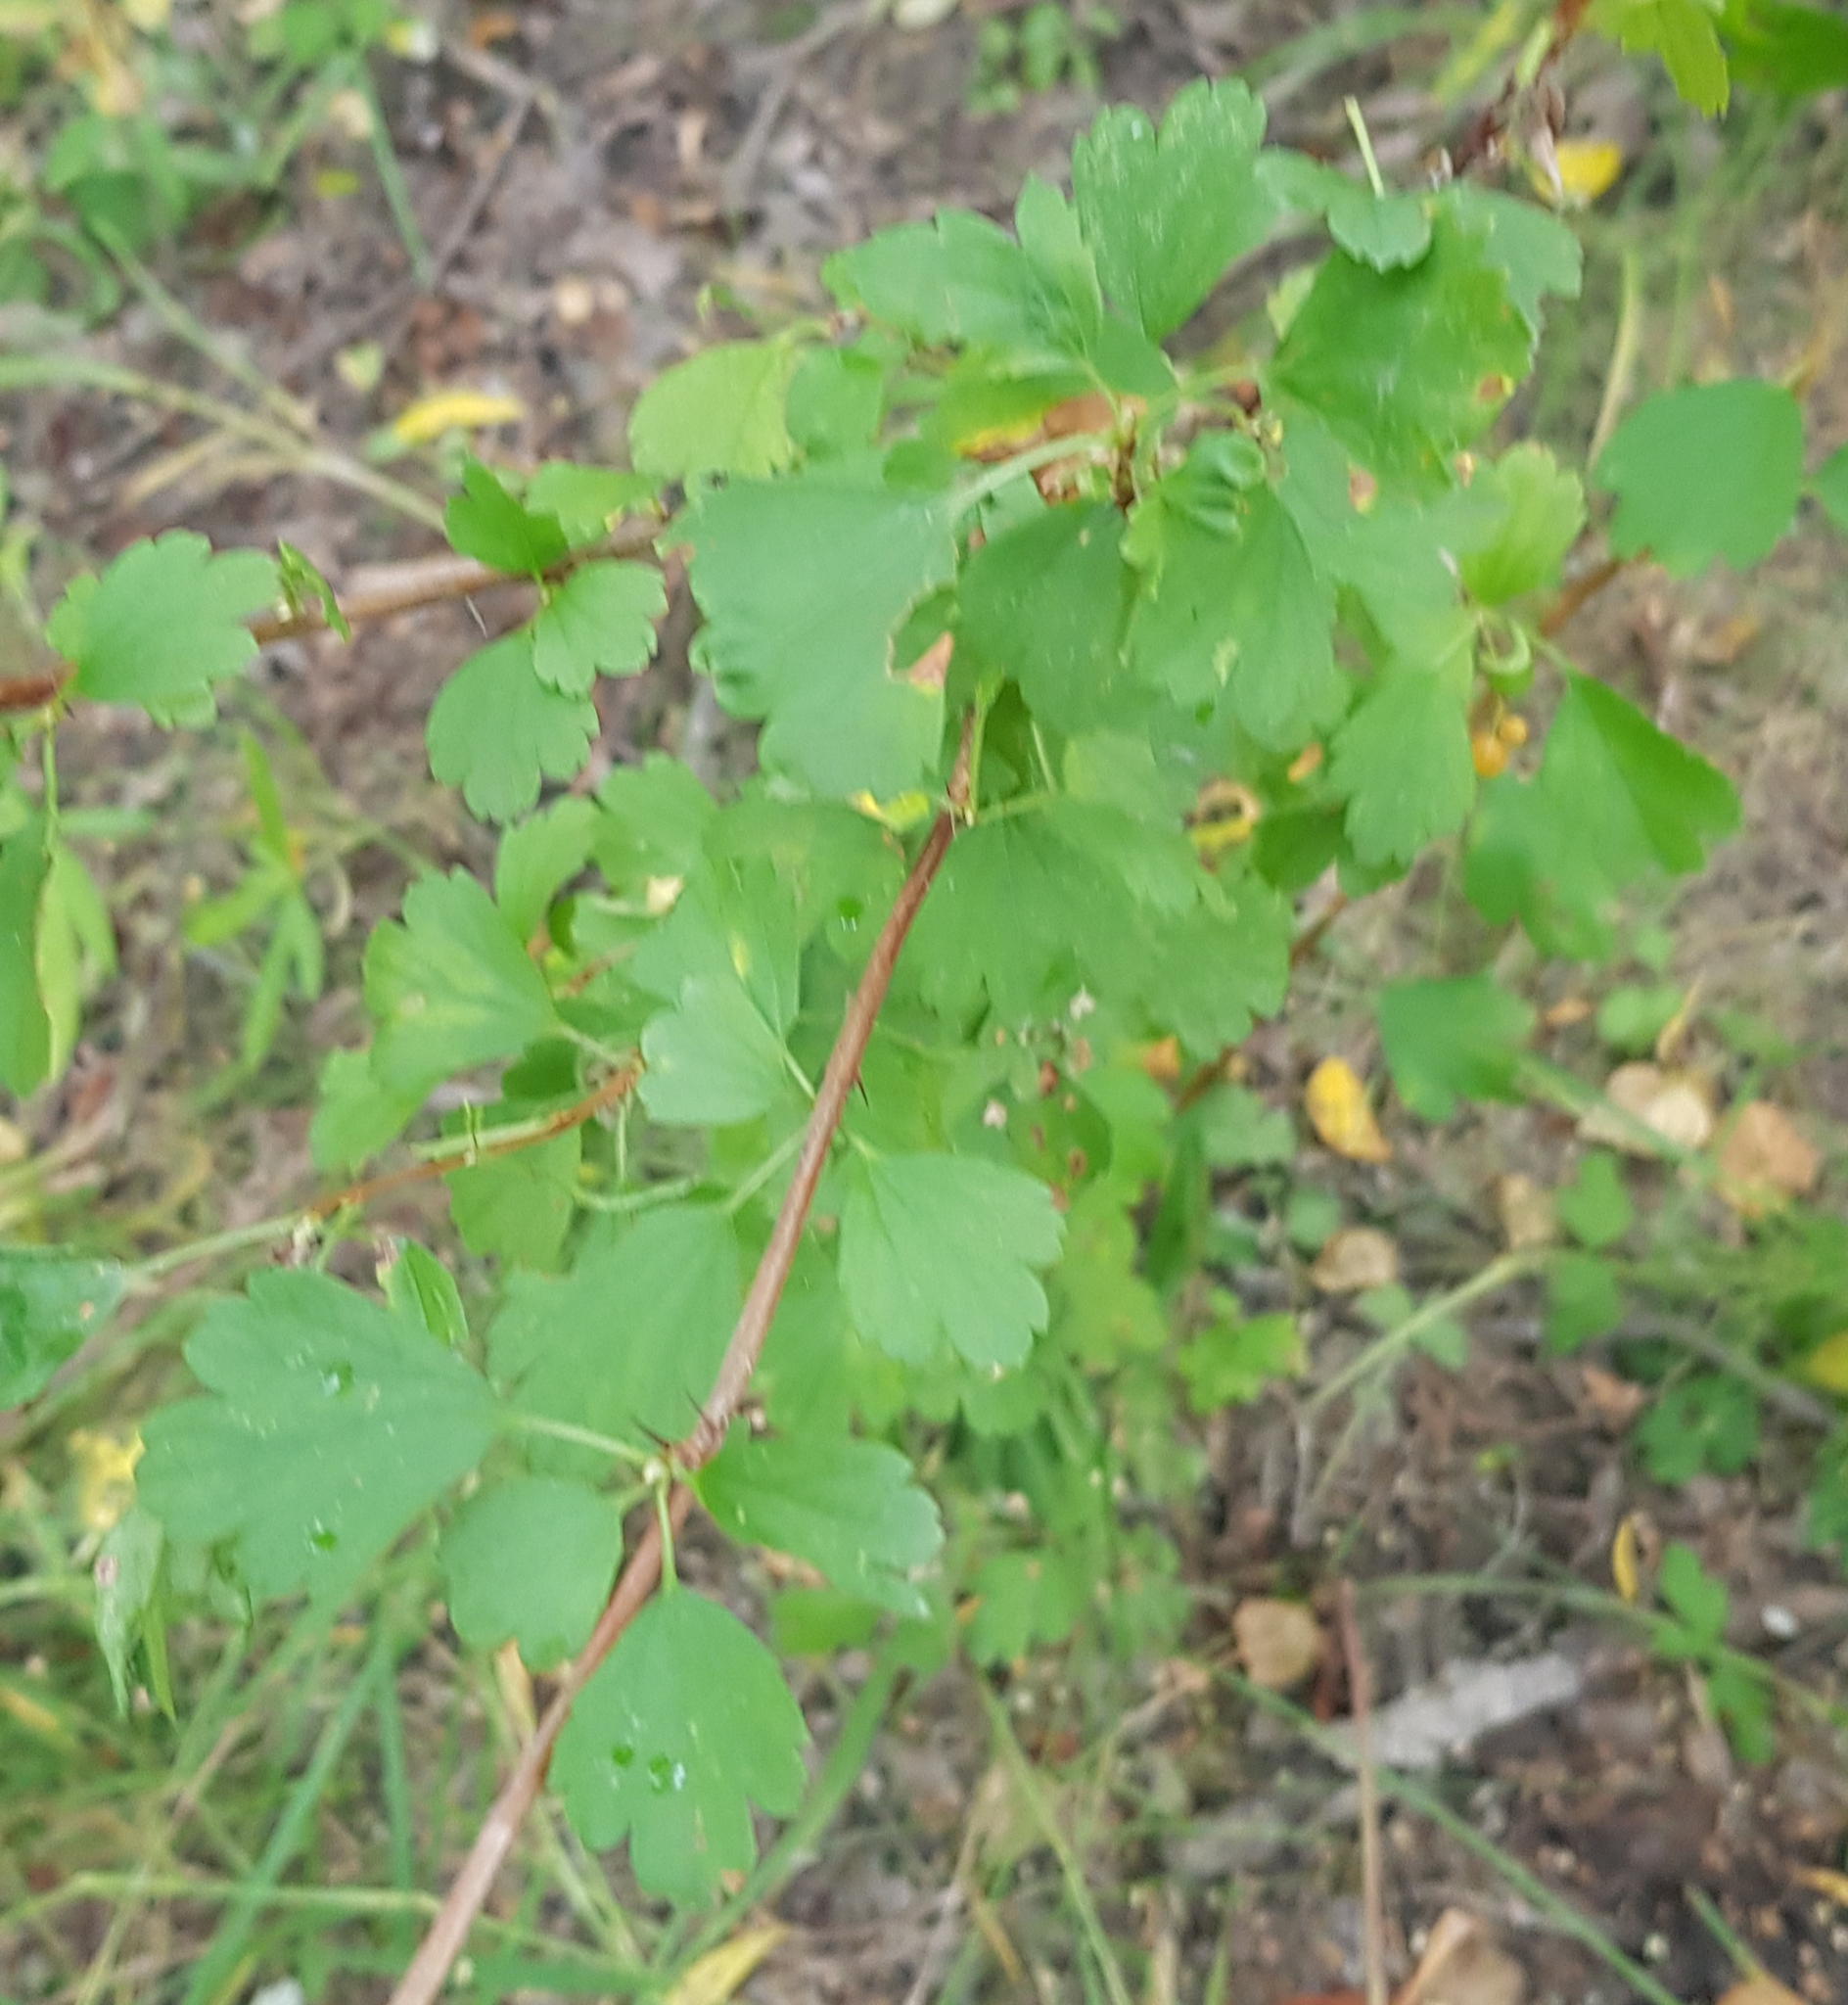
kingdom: Plantae
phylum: Tracheophyta
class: Magnoliopsida
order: Saxifragales
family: Grossulariaceae
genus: Ribes
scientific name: Ribes diacanthum
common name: Siberian currant
